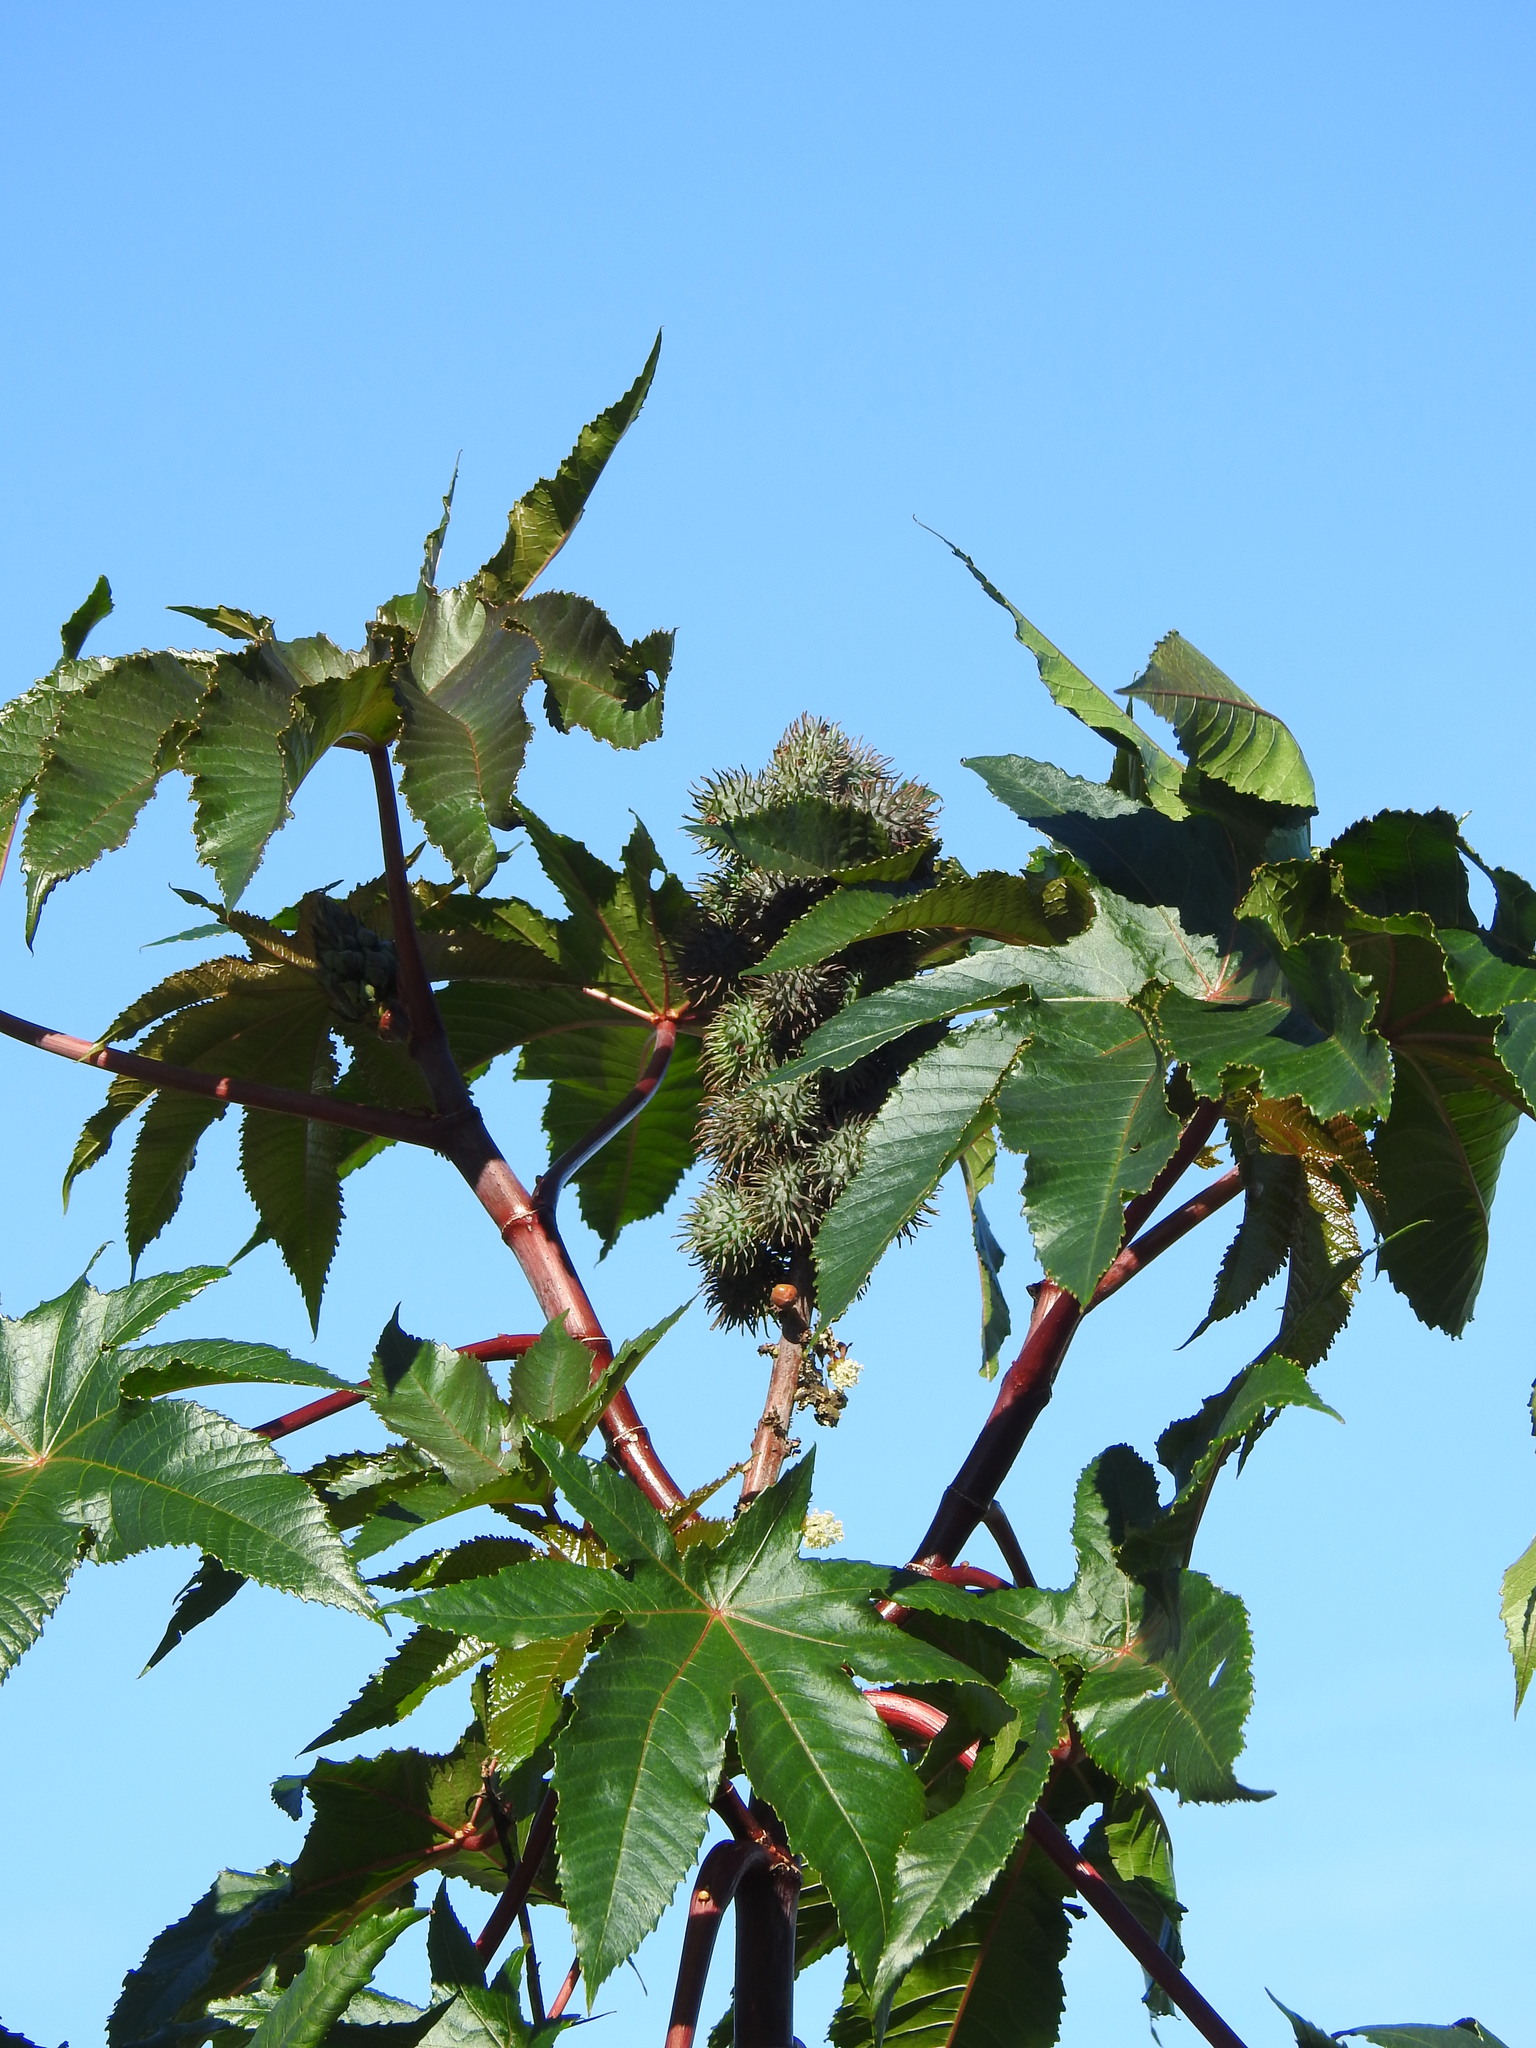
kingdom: Plantae
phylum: Tracheophyta
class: Magnoliopsida
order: Malpighiales
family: Euphorbiaceae
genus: Ricinus
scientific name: Ricinus communis
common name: Castor-oil-plant
